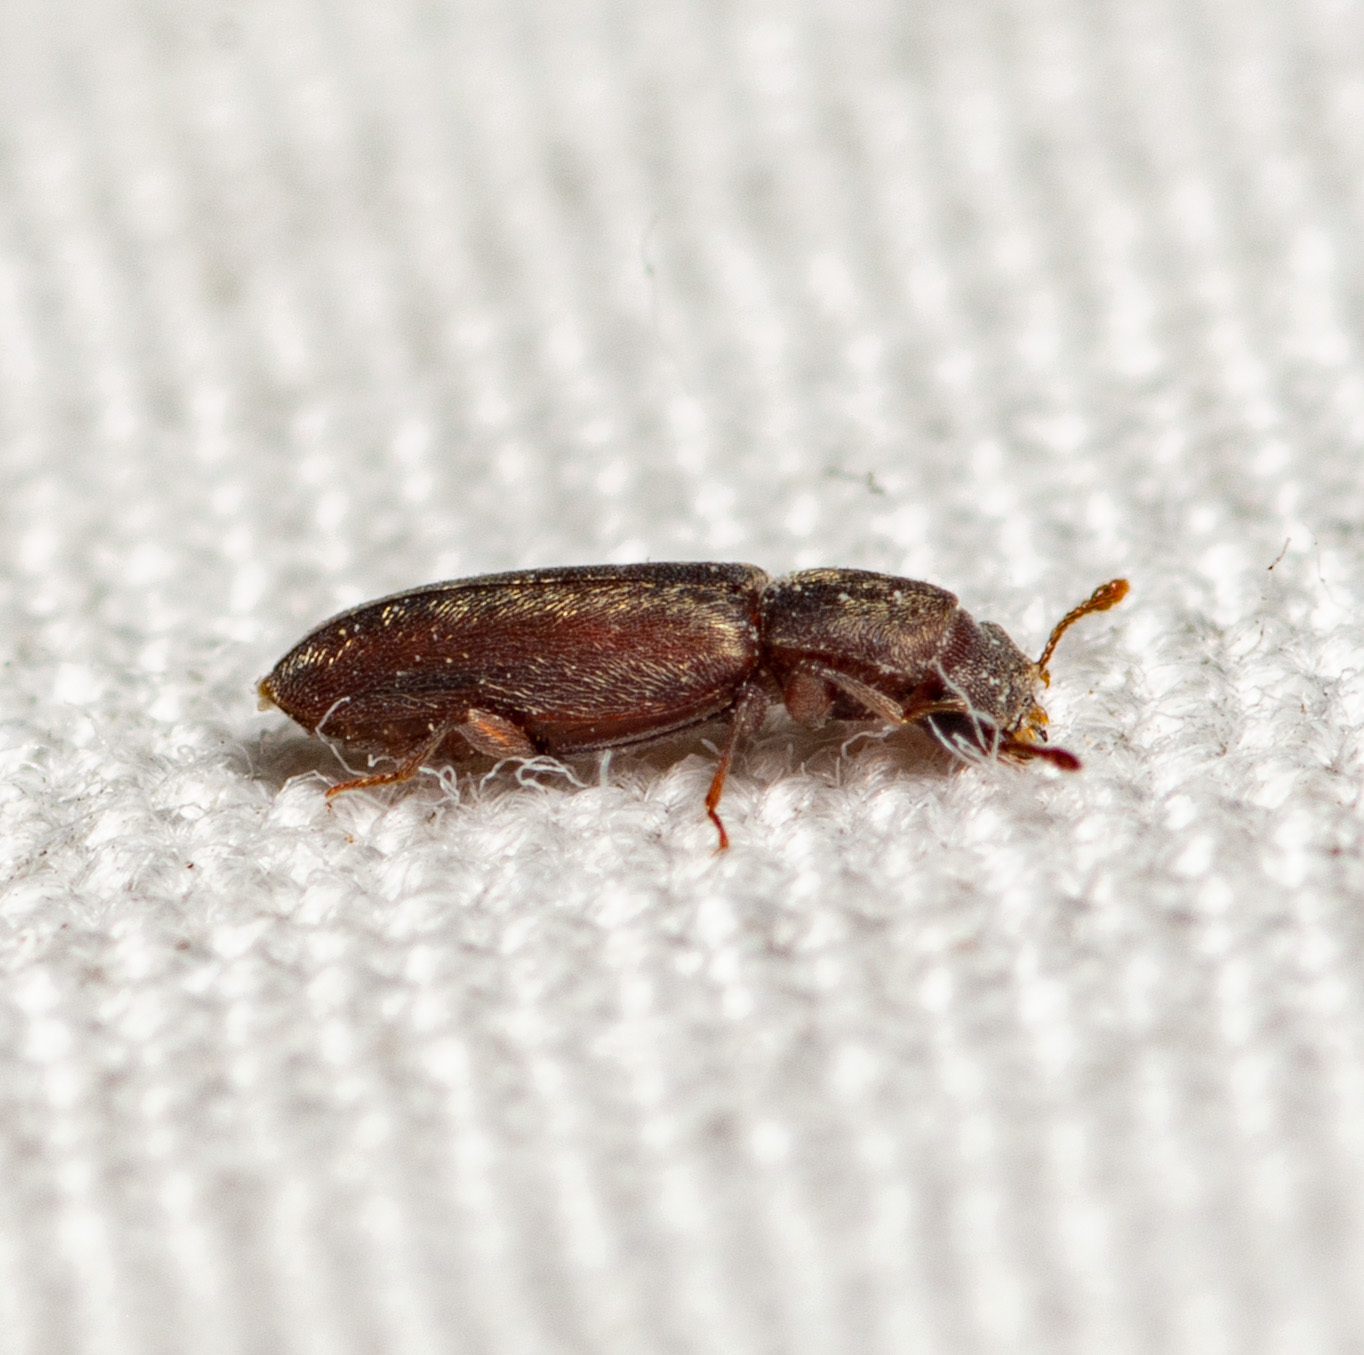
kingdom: Animalia
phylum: Arthropoda
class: Insecta
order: Coleoptera
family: Bostrichidae
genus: Trogoxylon
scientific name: Trogoxylon parallelipipedum
